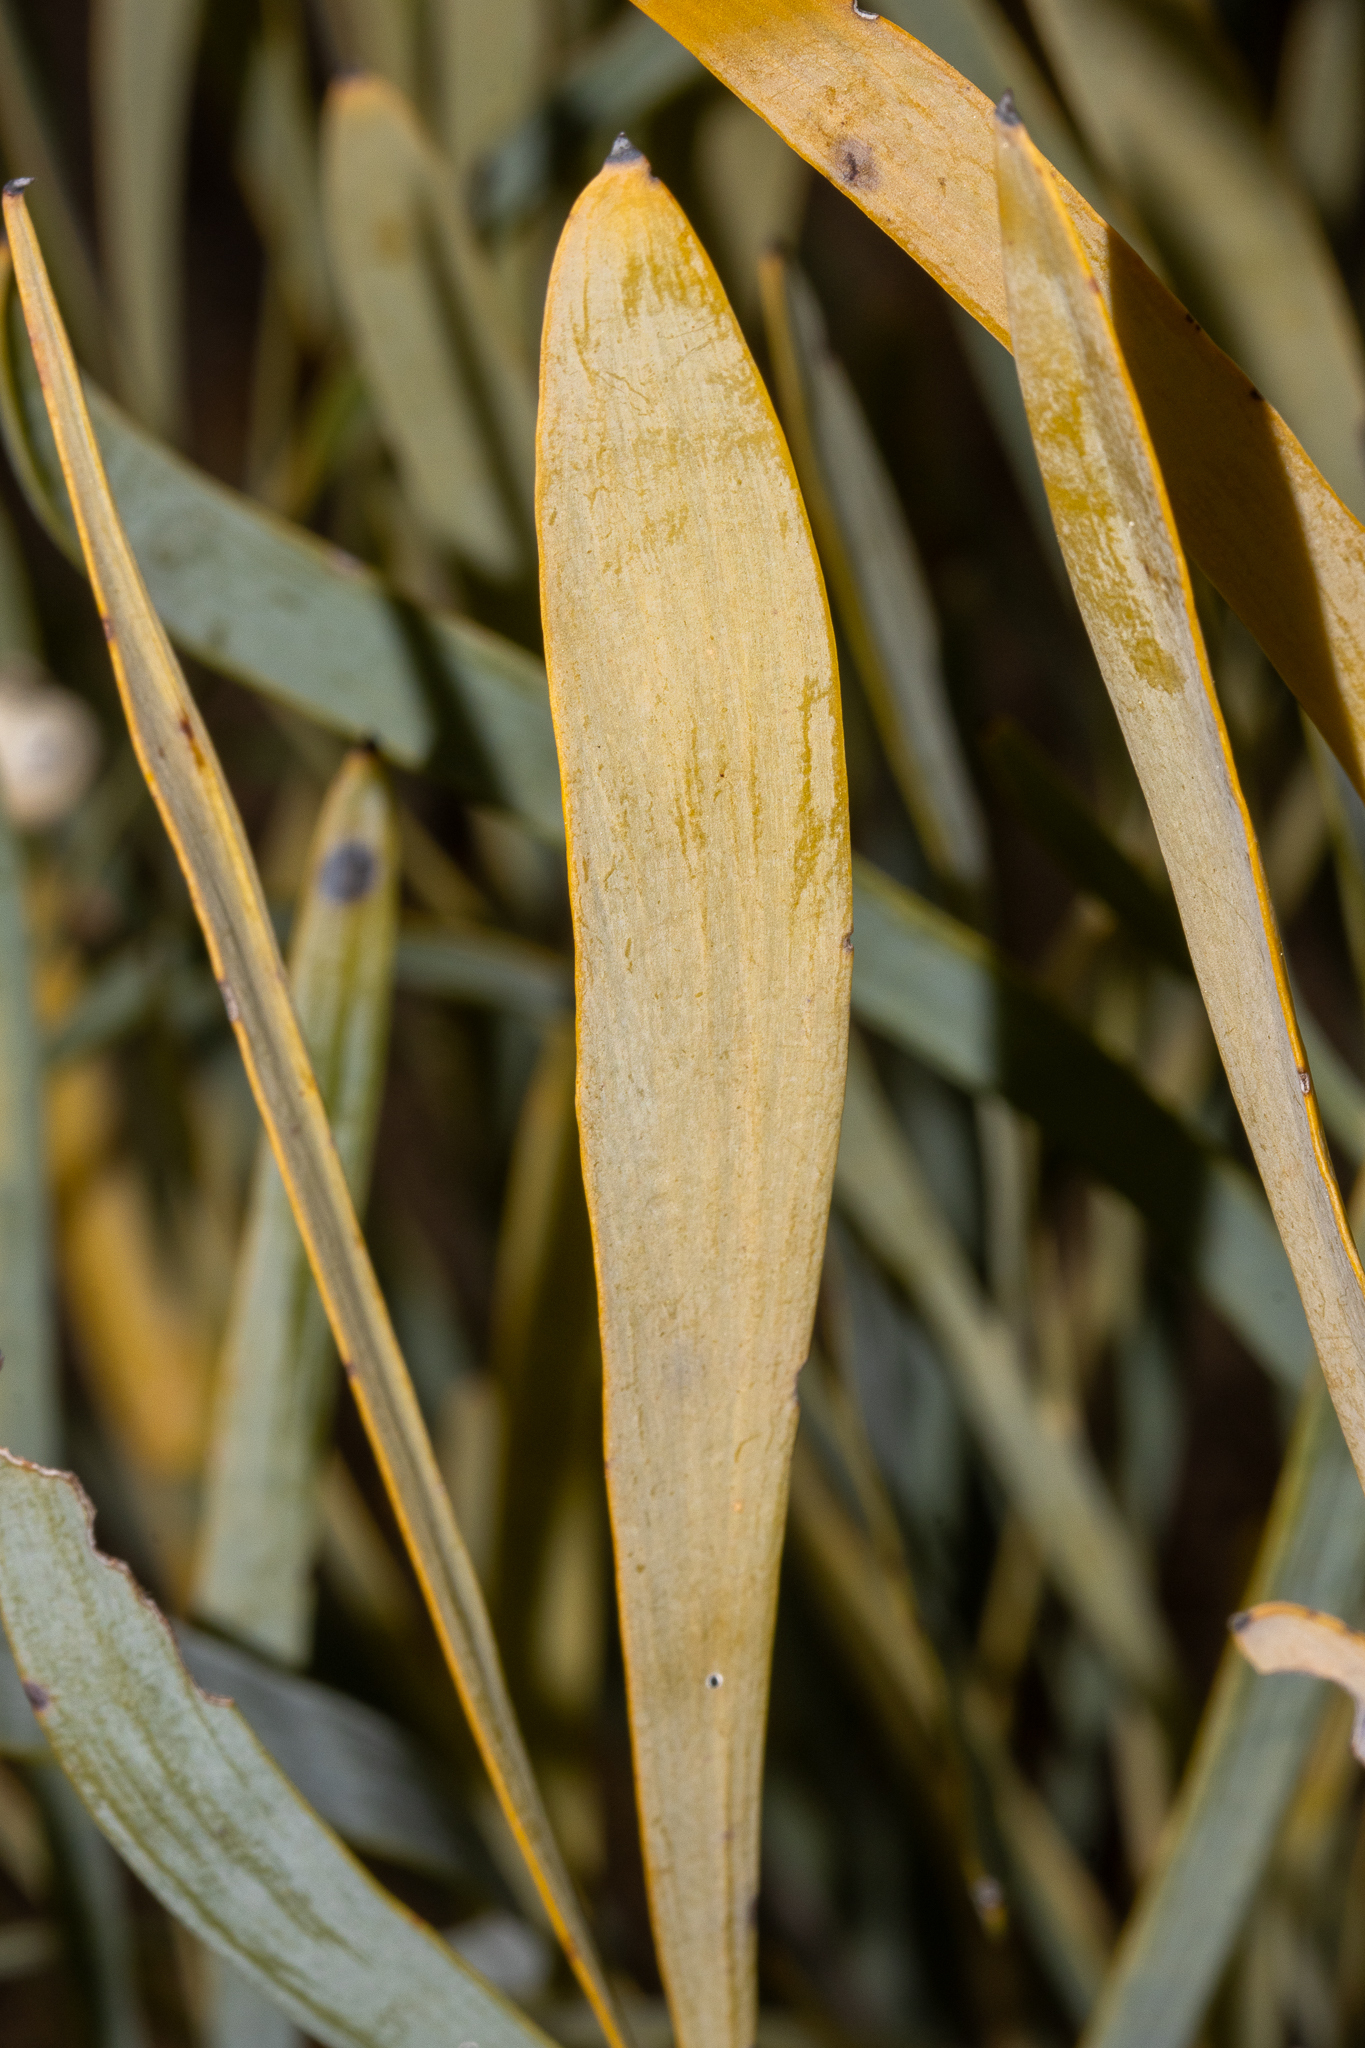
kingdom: Plantae
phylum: Tracheophyta
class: Magnoliopsida
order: Proteales
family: Proteaceae
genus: Stirlingia
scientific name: Stirlingia latifolia
